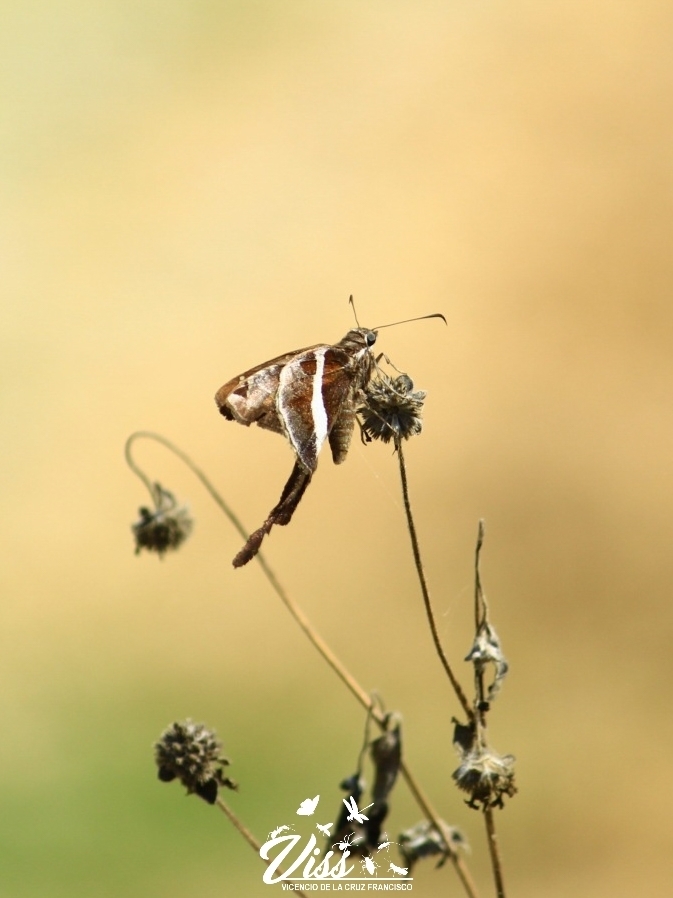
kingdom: Animalia
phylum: Arthropoda
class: Insecta
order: Lepidoptera
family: Hesperiidae
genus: Chioides
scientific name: Chioides catillus
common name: Silverbanded skipper
